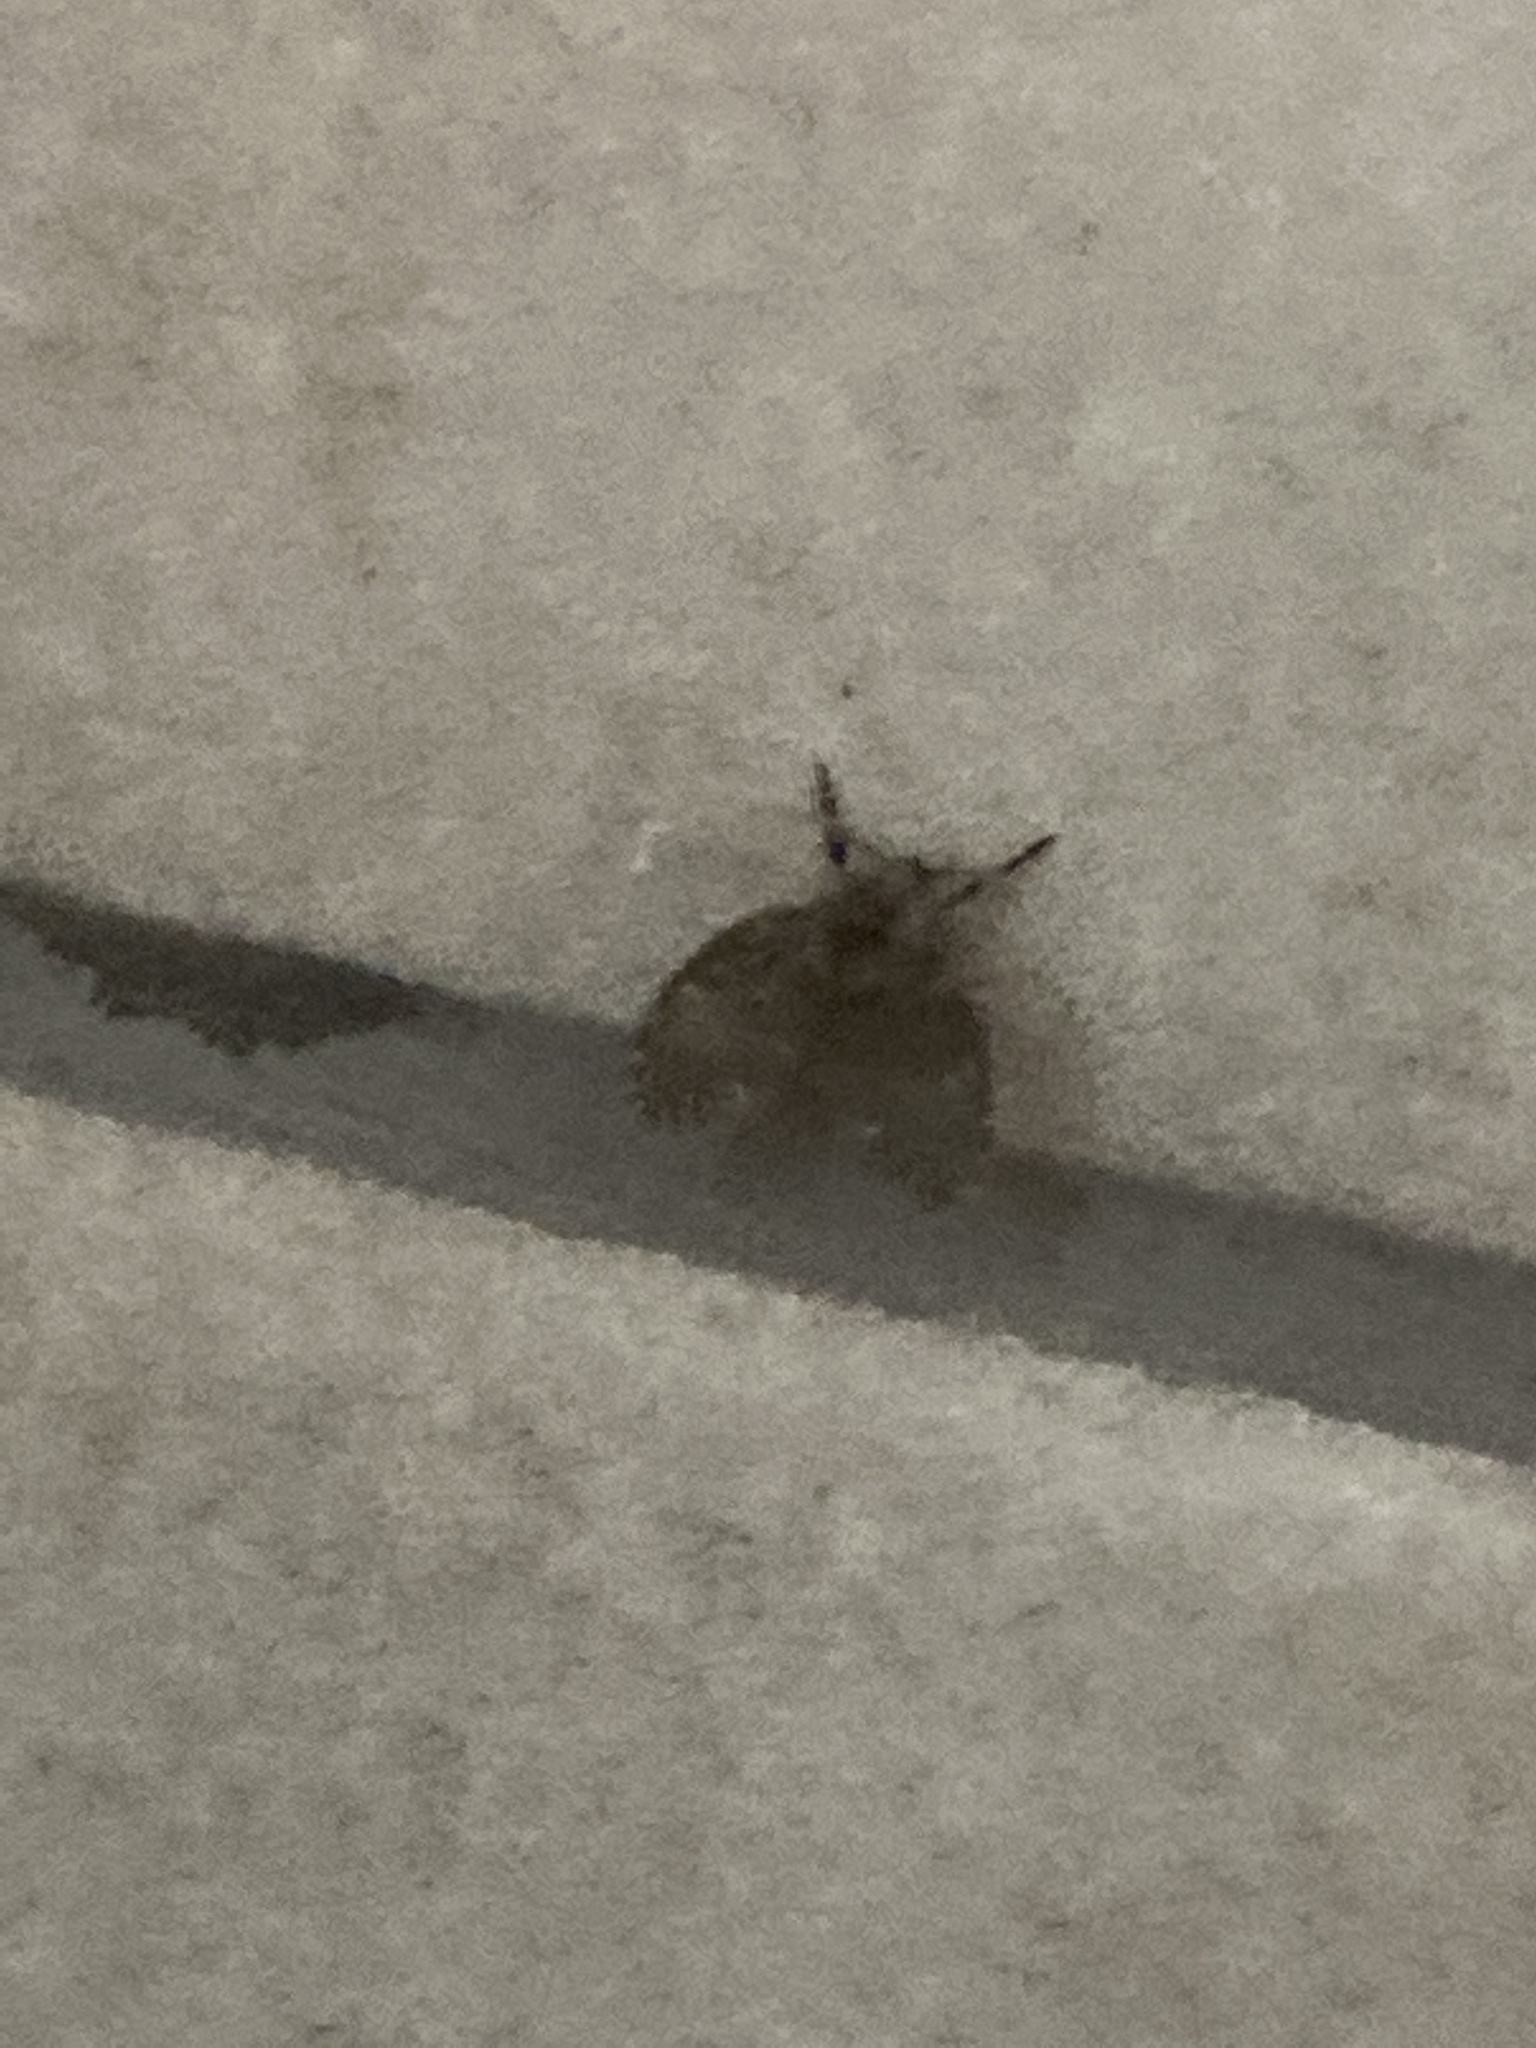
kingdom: Animalia
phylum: Arthropoda
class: Insecta
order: Diptera
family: Psychodidae
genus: Clogmia
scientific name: Clogmia albipunctatus
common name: White-spotted moth fly
